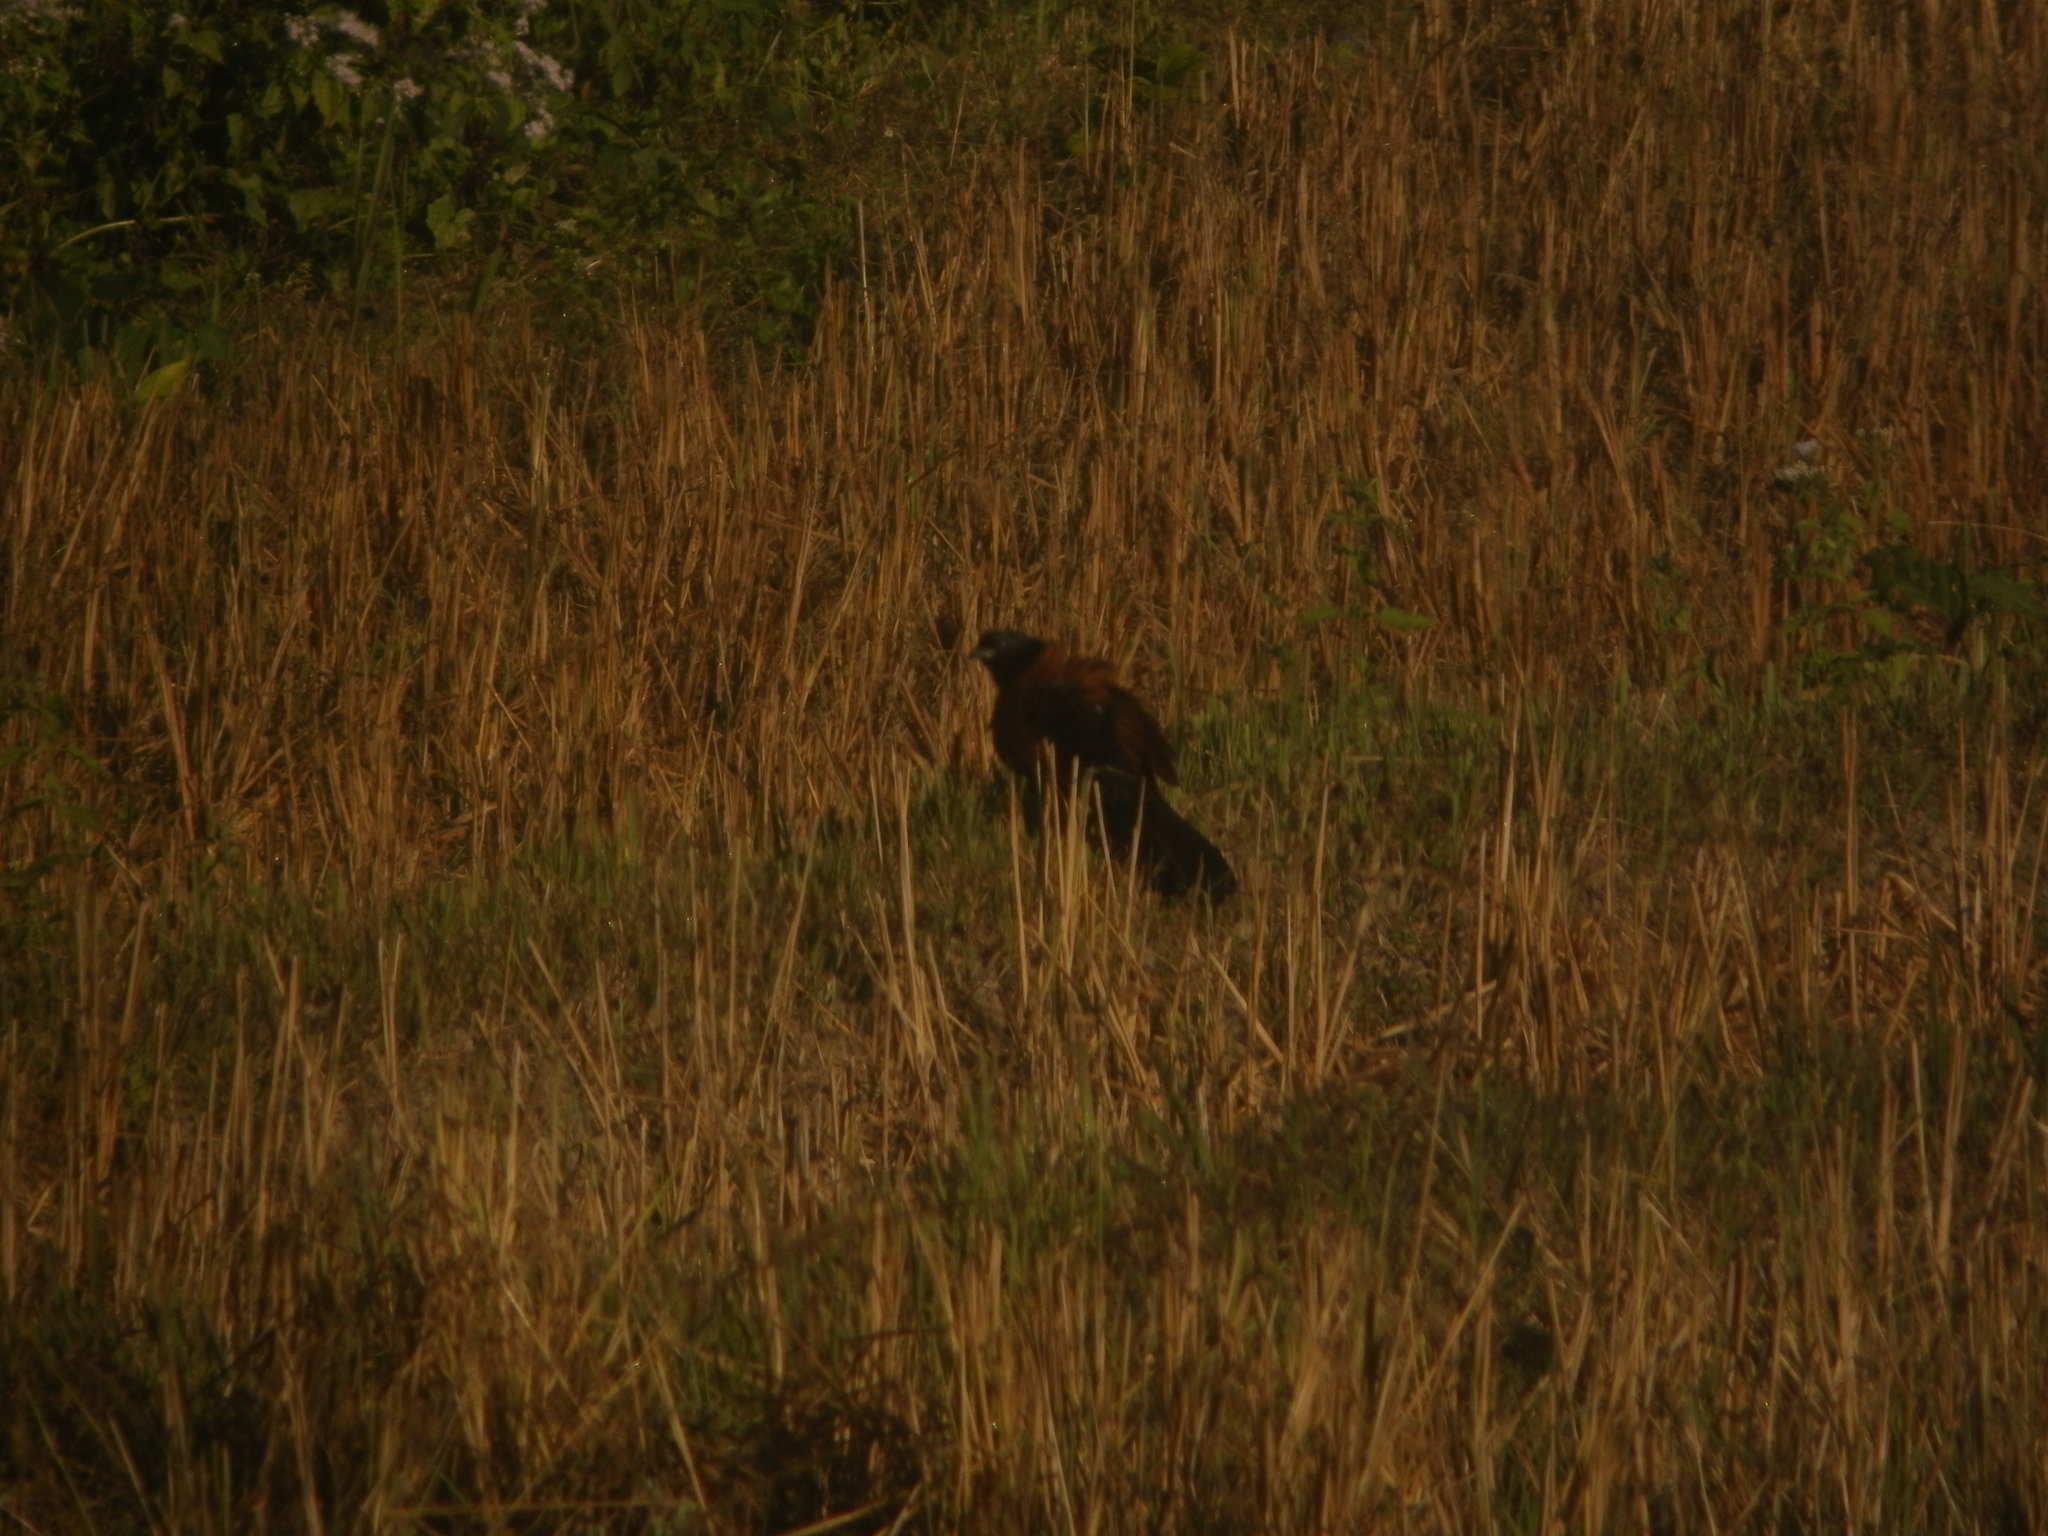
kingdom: Animalia
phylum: Chordata
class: Aves
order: Cuculiformes
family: Cuculidae
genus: Centropus
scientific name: Centropus sinensis
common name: Greater coucal
